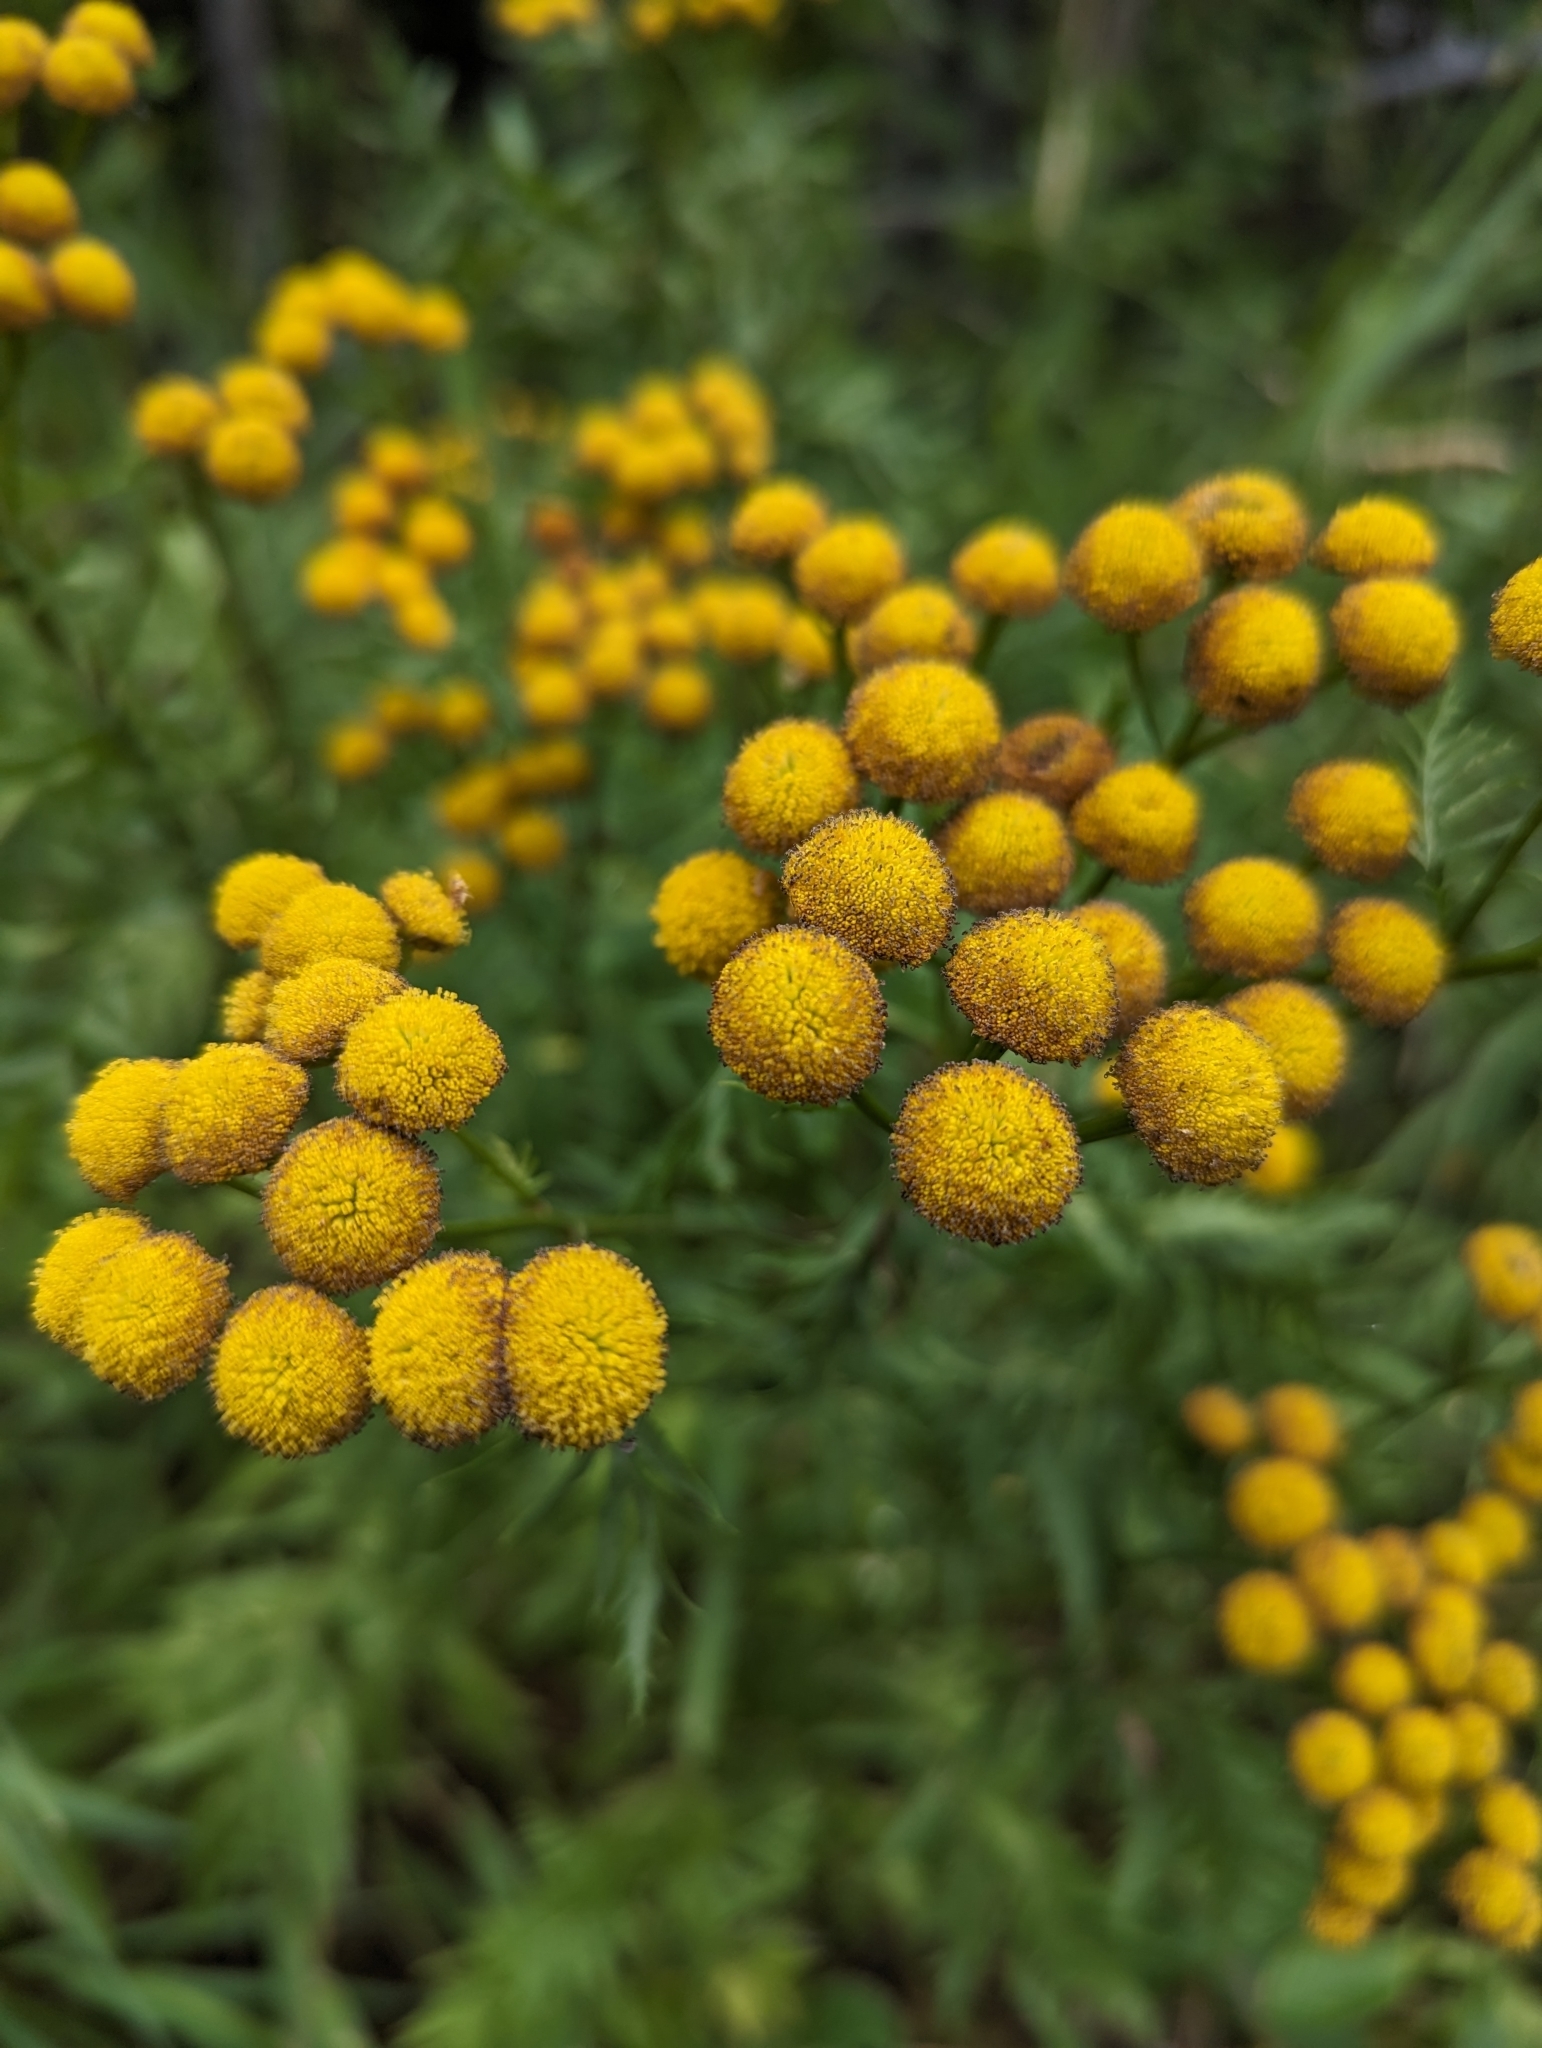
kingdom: Plantae
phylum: Tracheophyta
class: Magnoliopsida
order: Asterales
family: Asteraceae
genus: Tanacetum
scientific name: Tanacetum vulgare
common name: Common tansy
